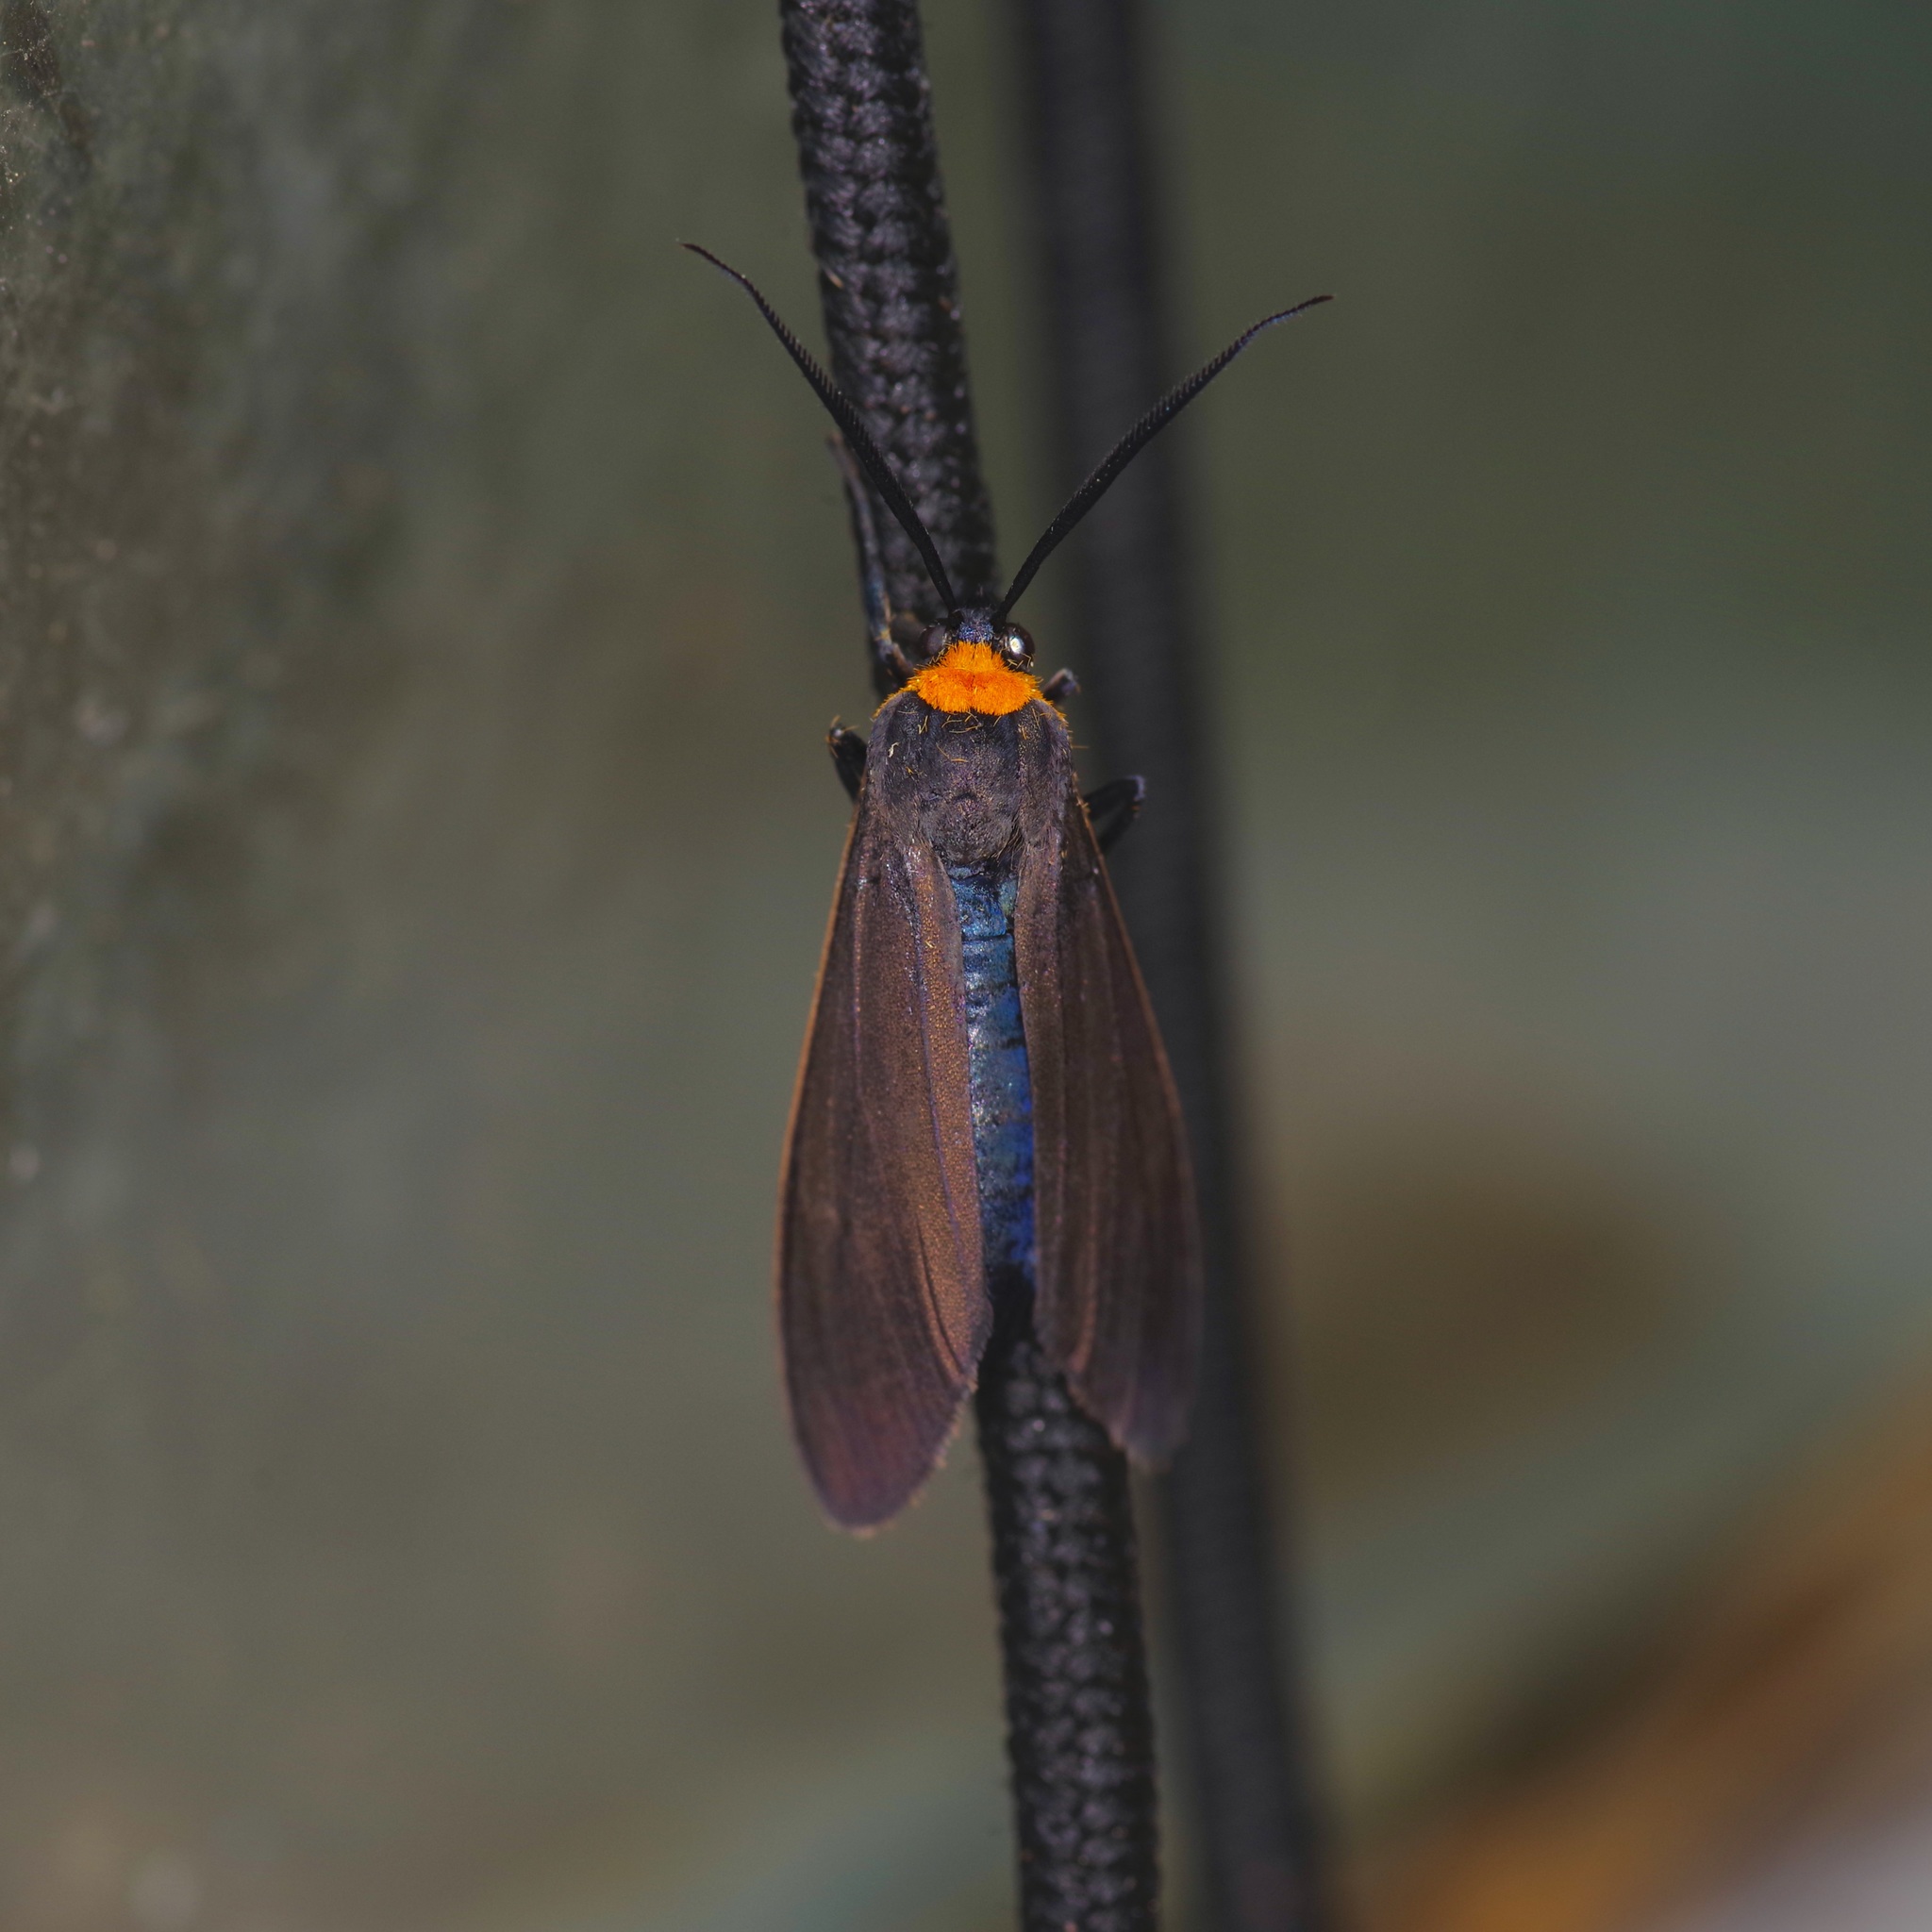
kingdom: Animalia
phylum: Arthropoda
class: Insecta
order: Lepidoptera
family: Erebidae
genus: Cisseps
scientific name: Cisseps fulvicollis
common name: Yellow-collared scape moth
